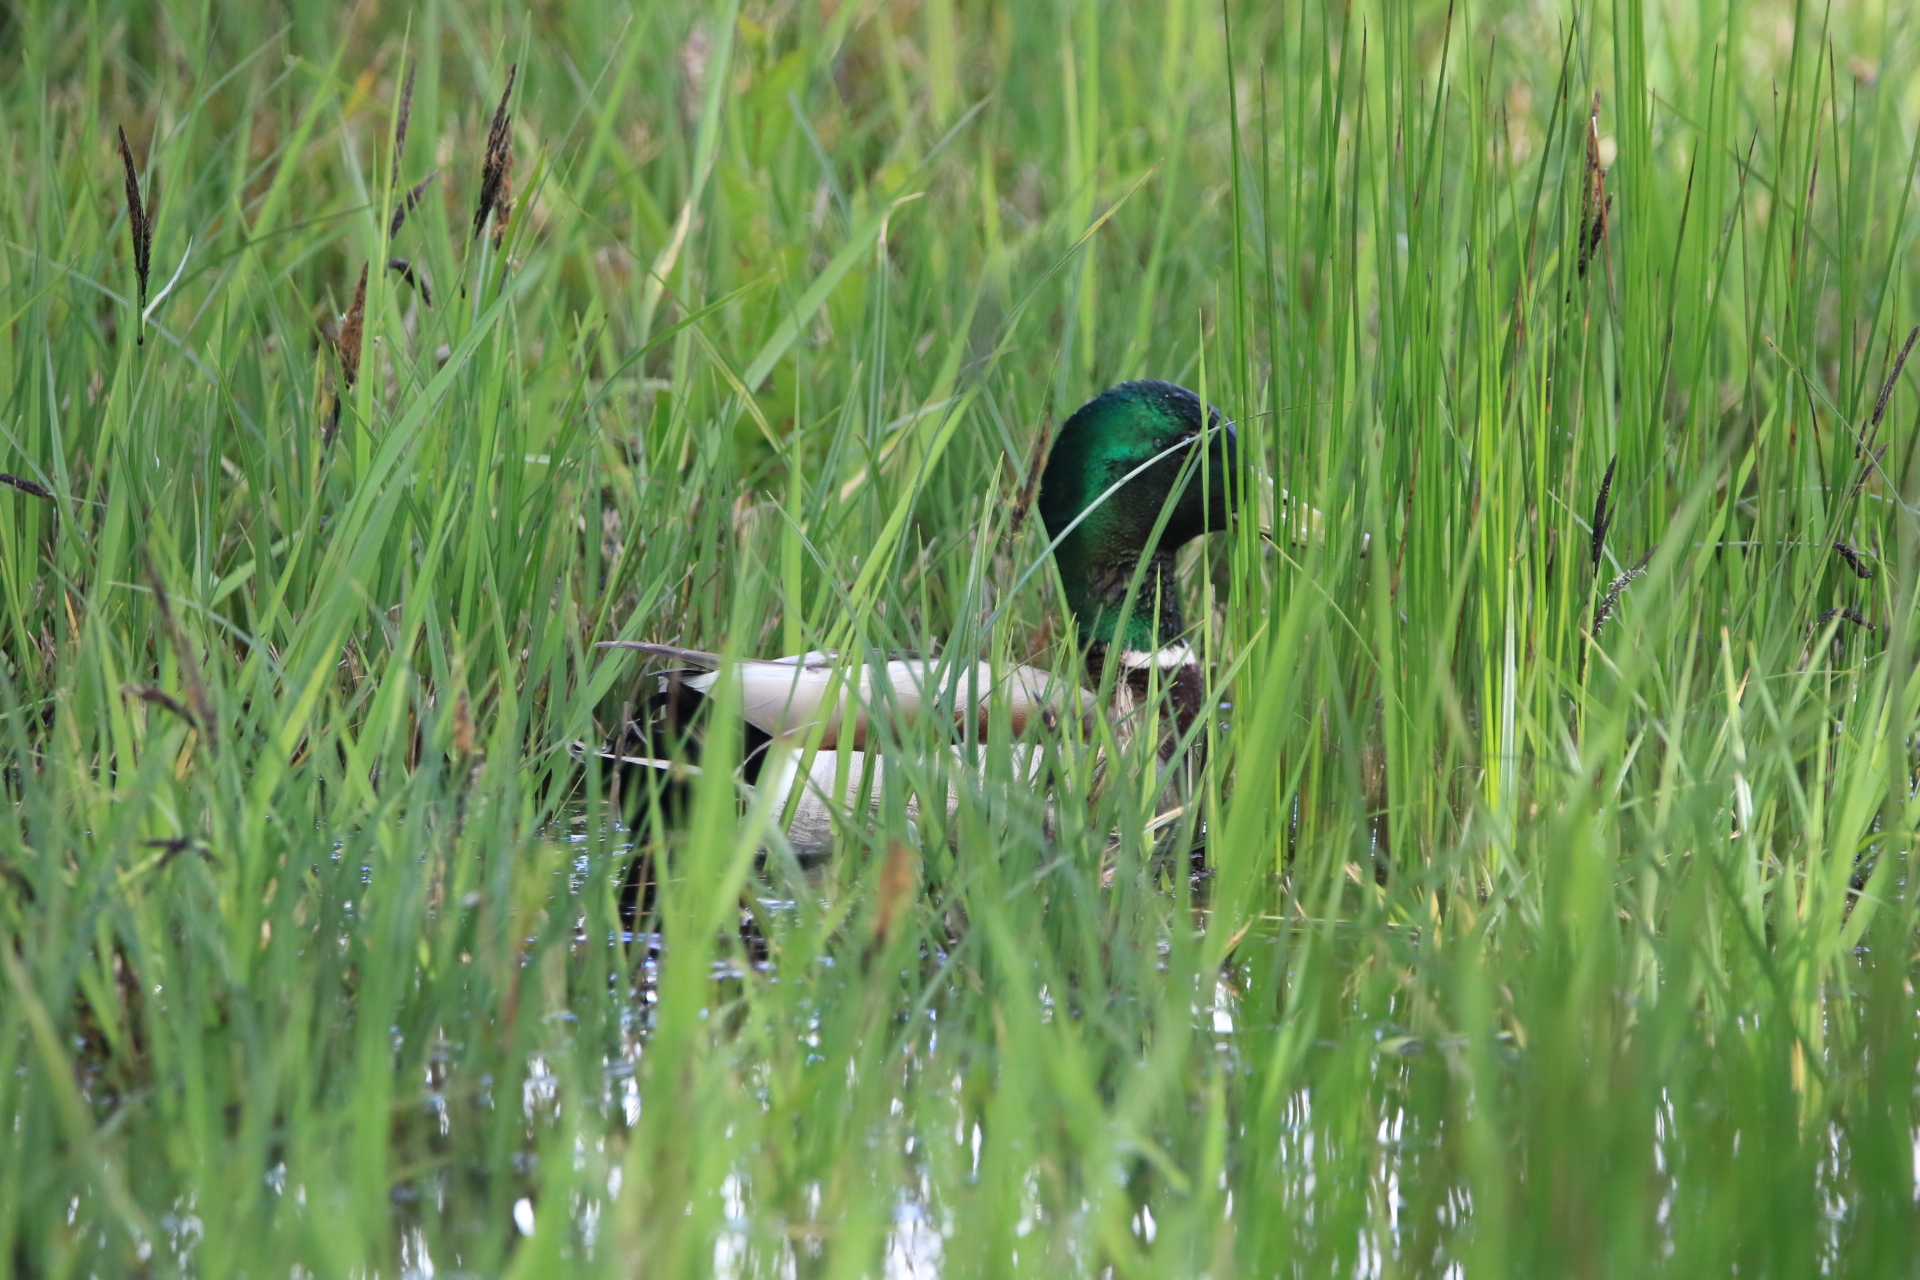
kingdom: Animalia
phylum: Chordata
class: Aves
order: Anseriformes
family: Anatidae
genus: Anas
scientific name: Anas platyrhynchos
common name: Mallard
